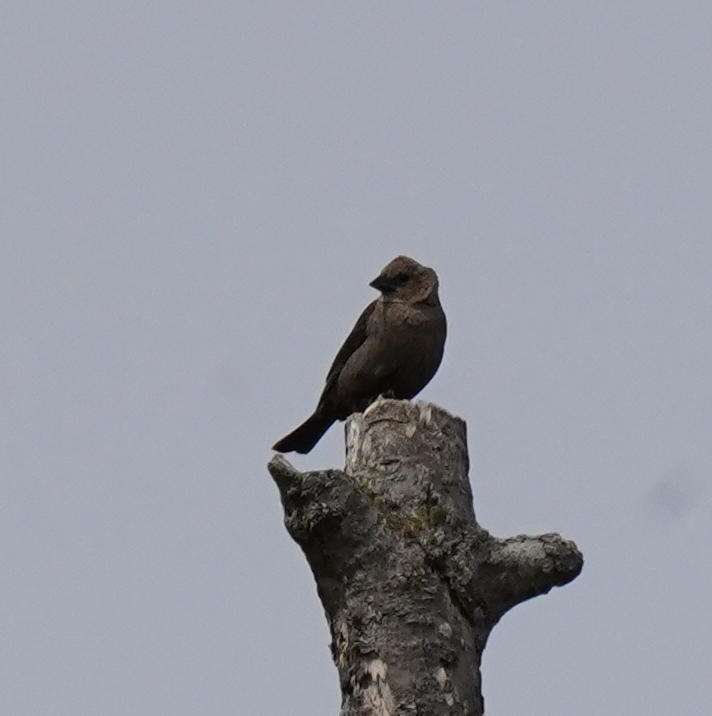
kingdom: Animalia
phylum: Chordata
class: Aves
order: Passeriformes
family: Icteridae
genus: Molothrus
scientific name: Molothrus ater
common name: Brown-headed cowbird
